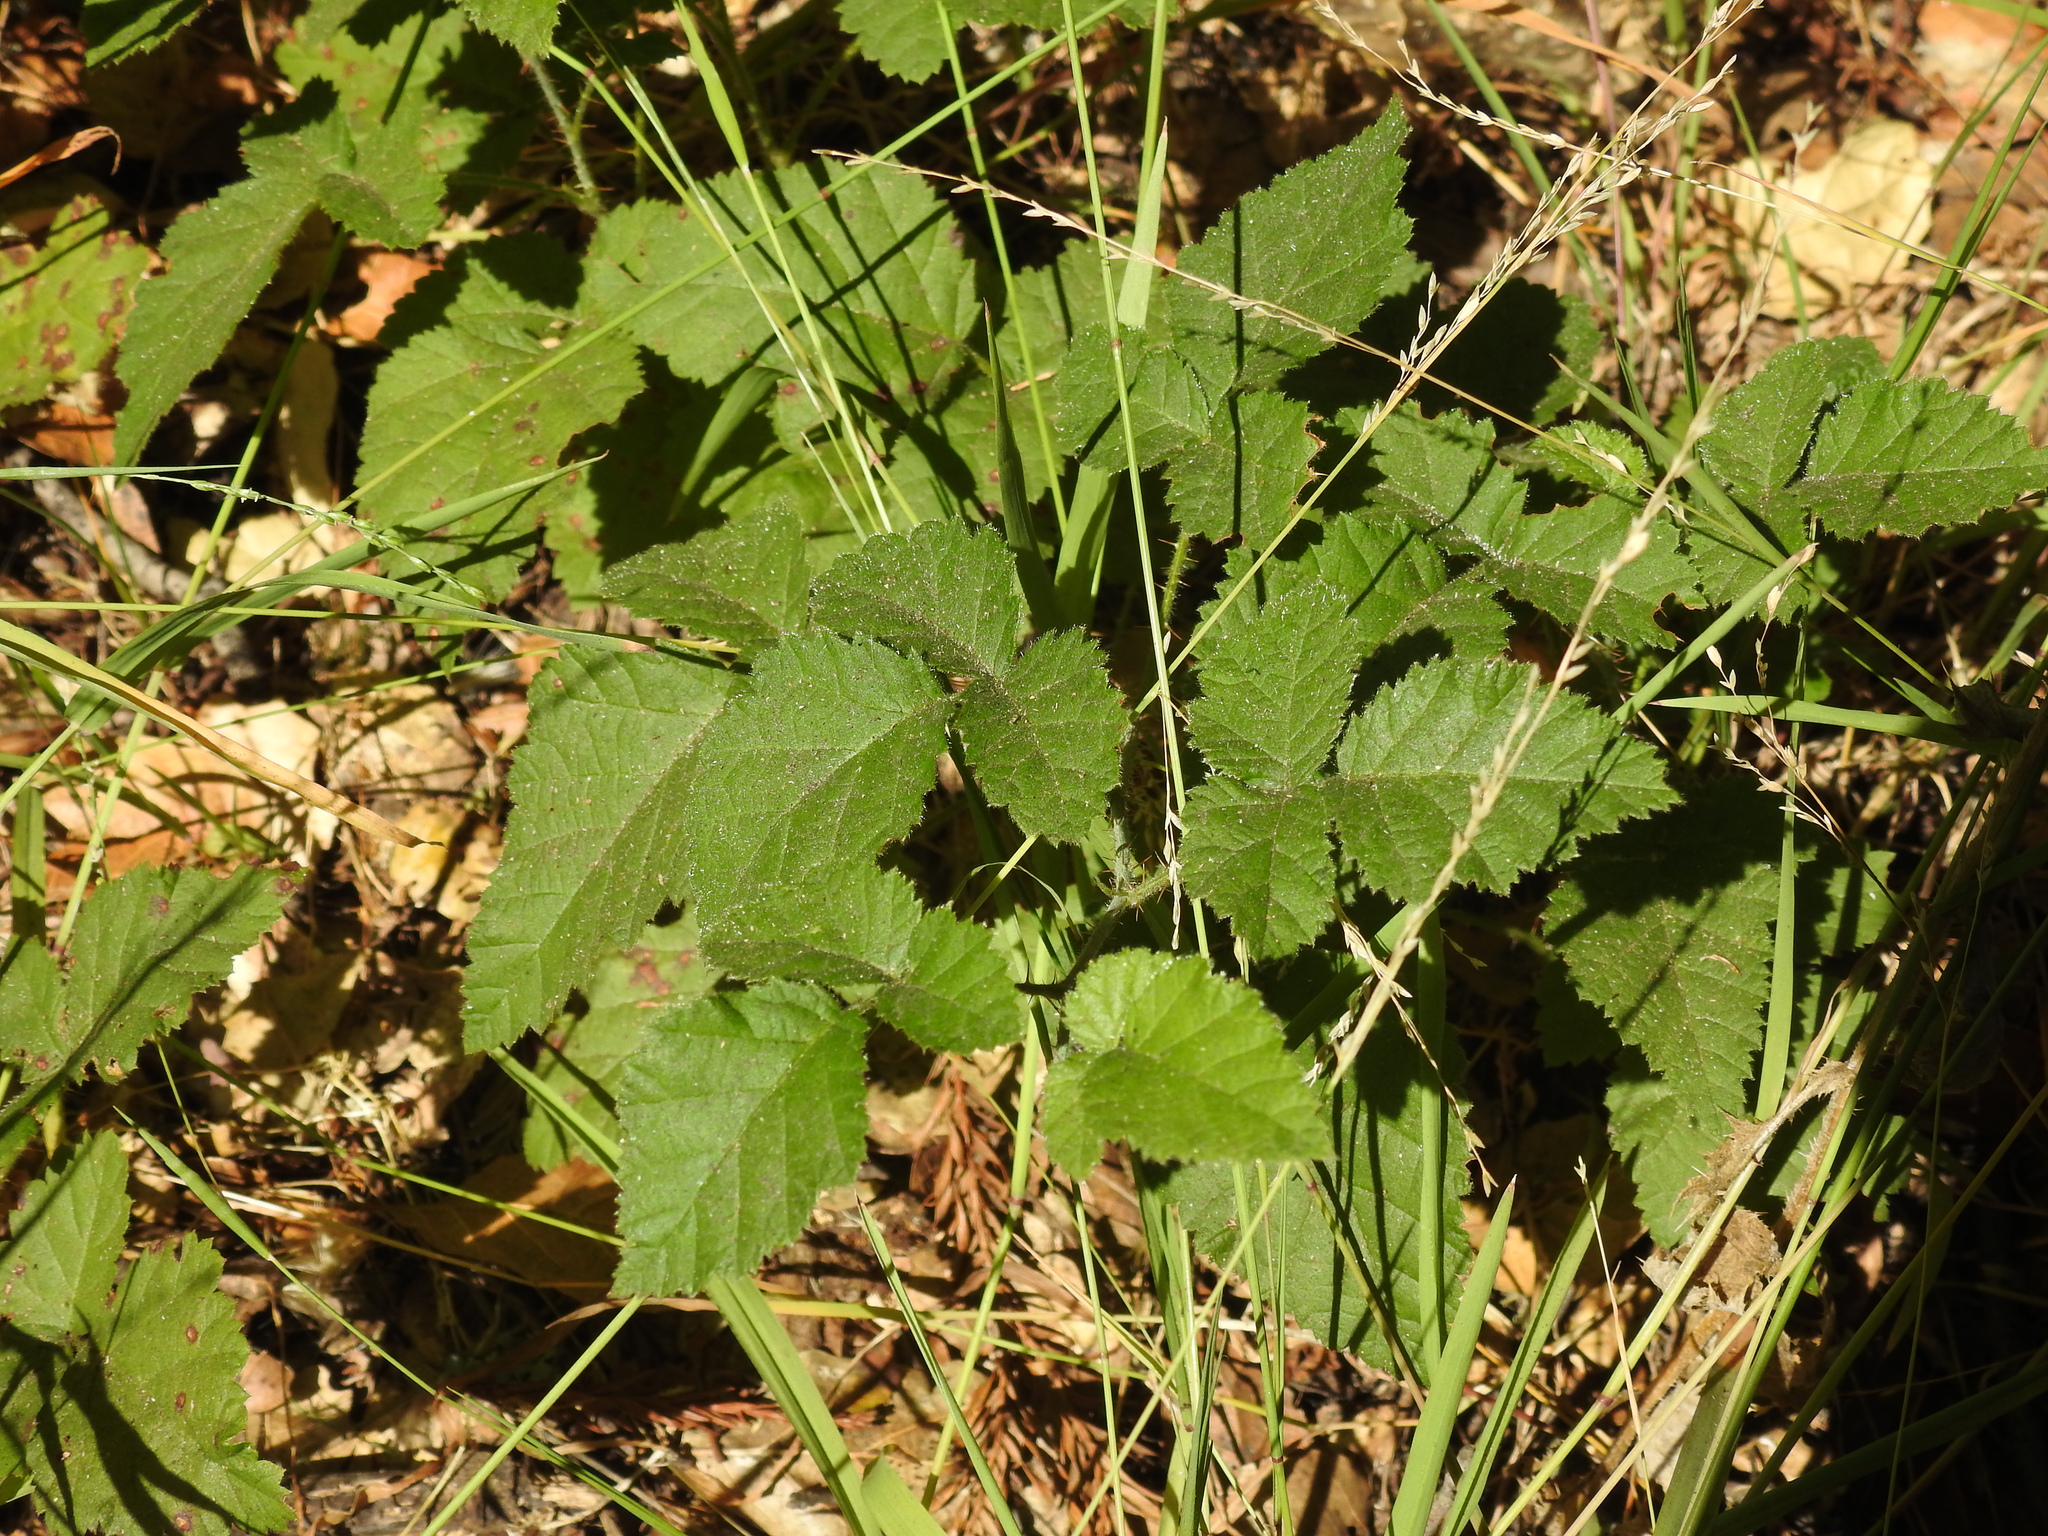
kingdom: Plantae
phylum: Tracheophyta
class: Magnoliopsida
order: Rosales
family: Rosaceae
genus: Rubus
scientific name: Rubus ursinus
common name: Pacific blackberry
